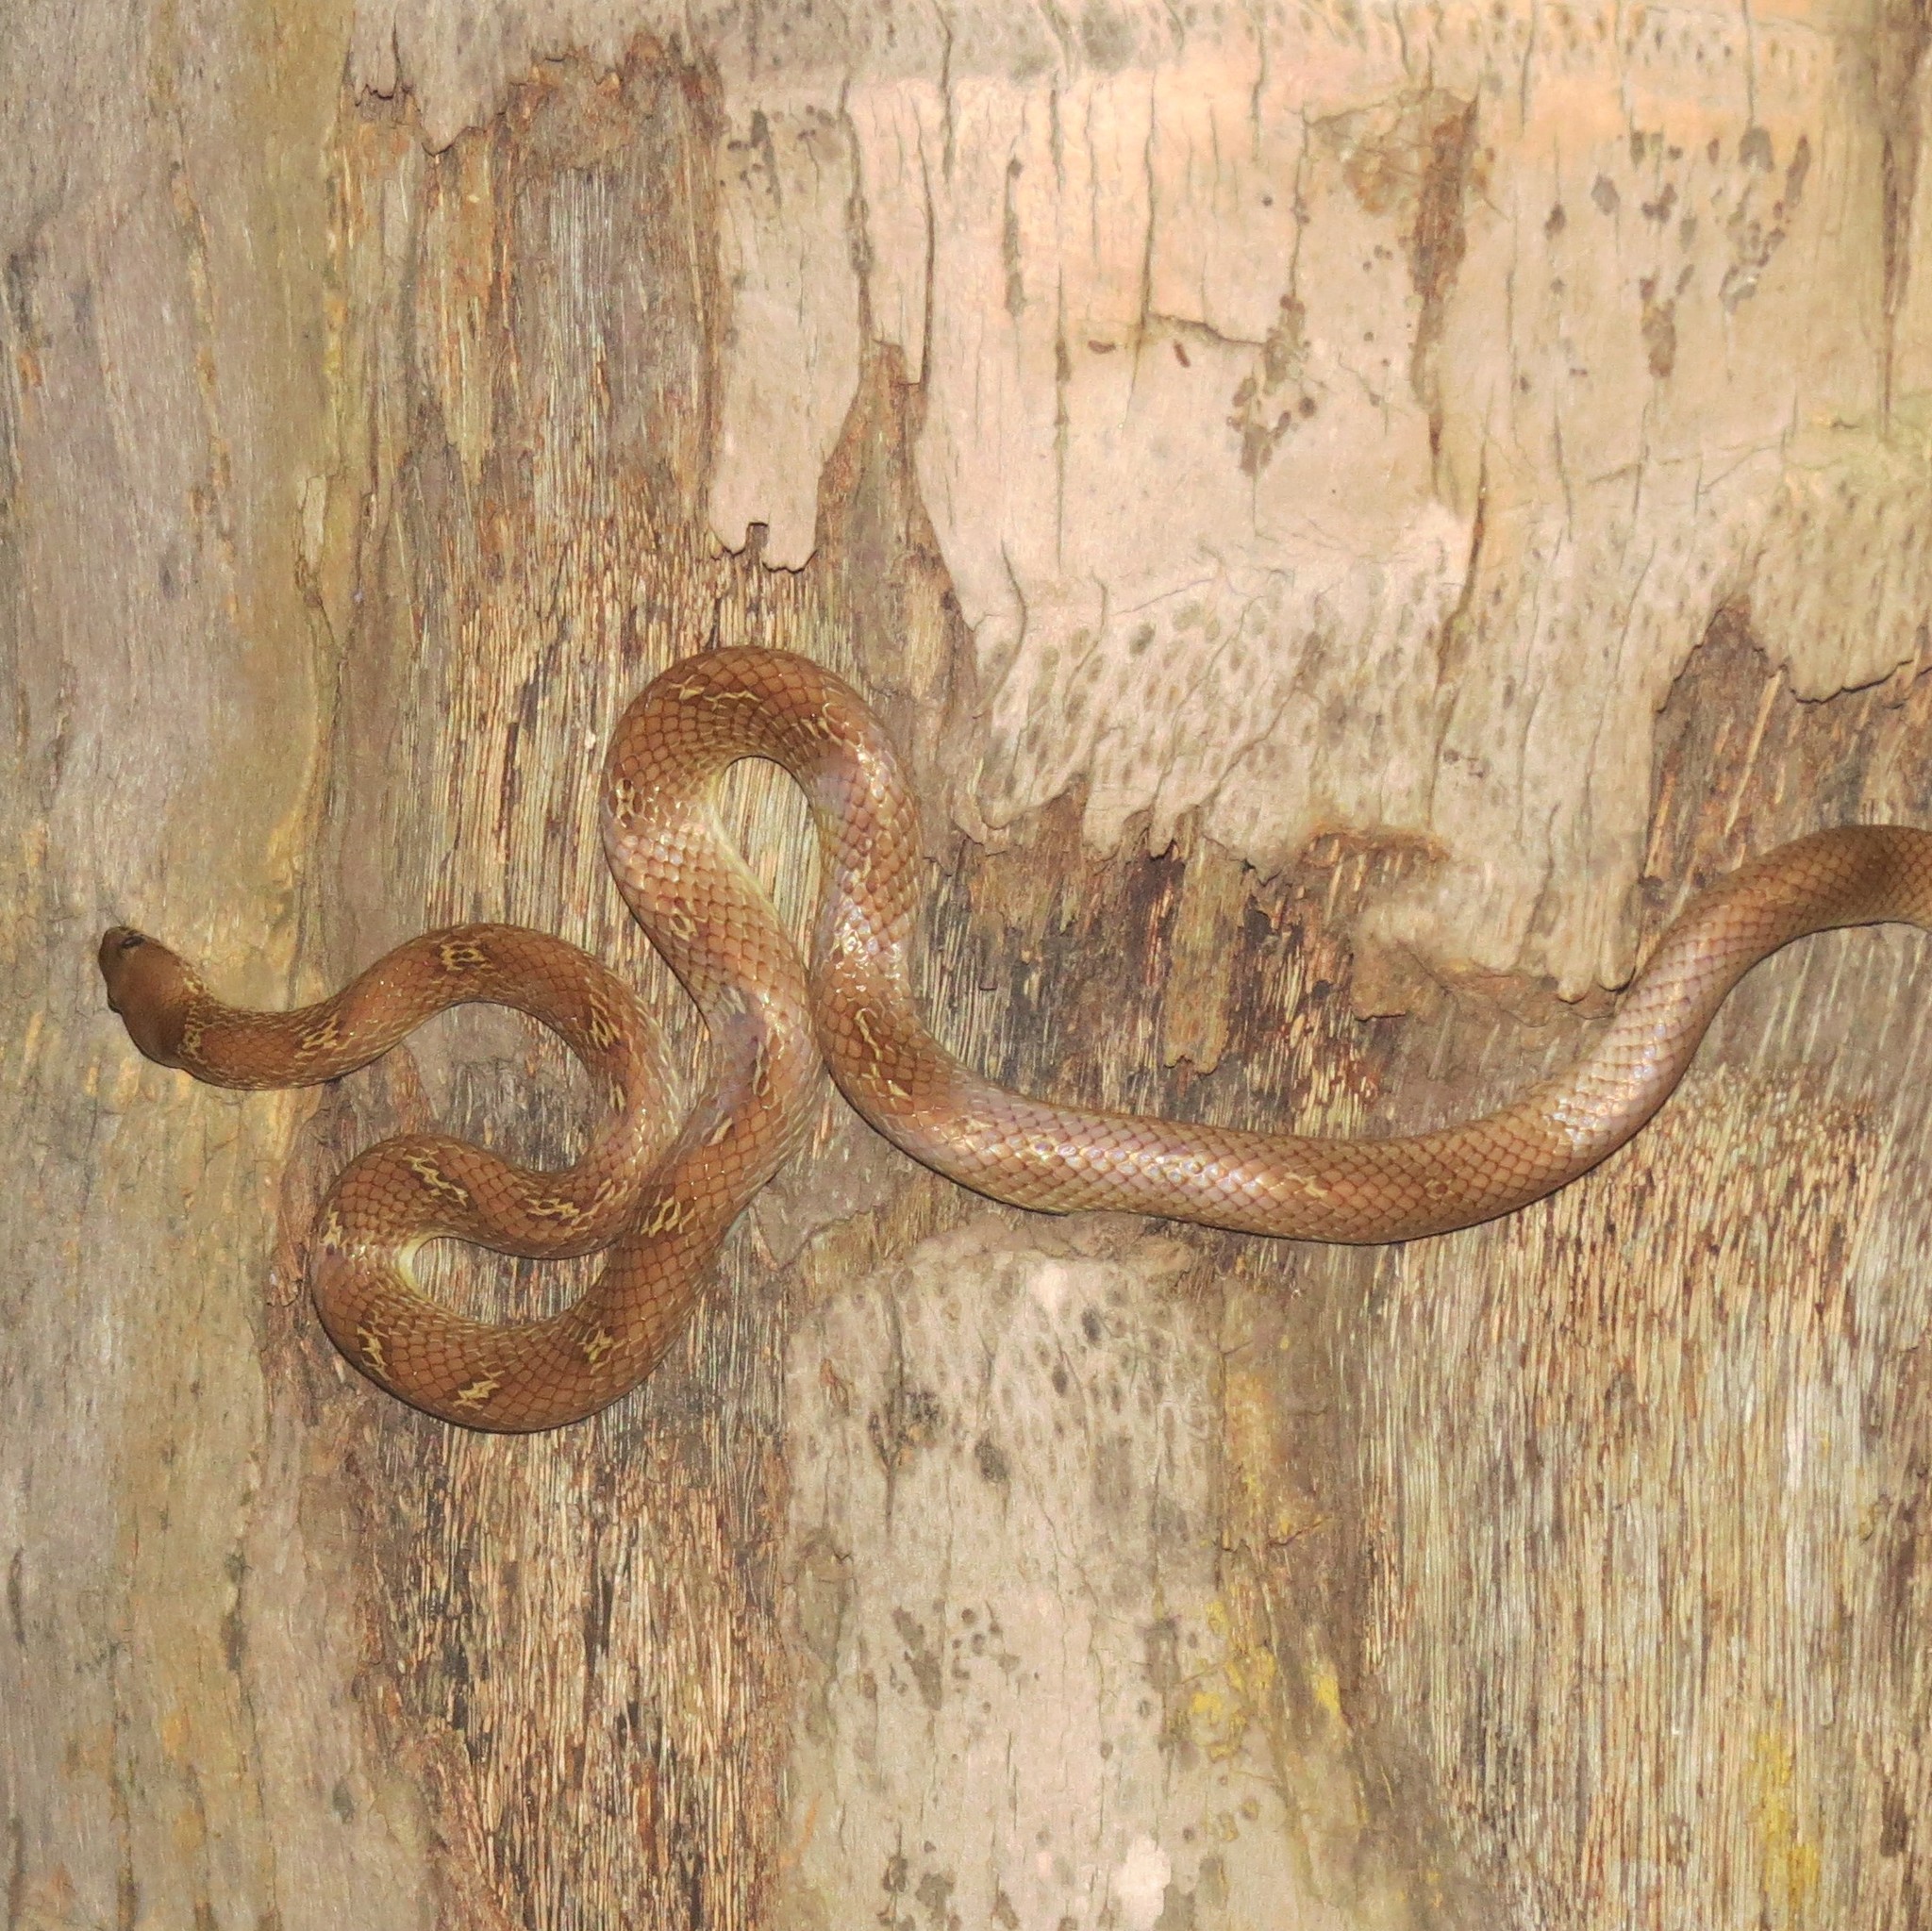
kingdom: Animalia
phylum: Chordata
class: Squamata
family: Colubridae
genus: Lycodon
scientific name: Lycodon fasciolatus
